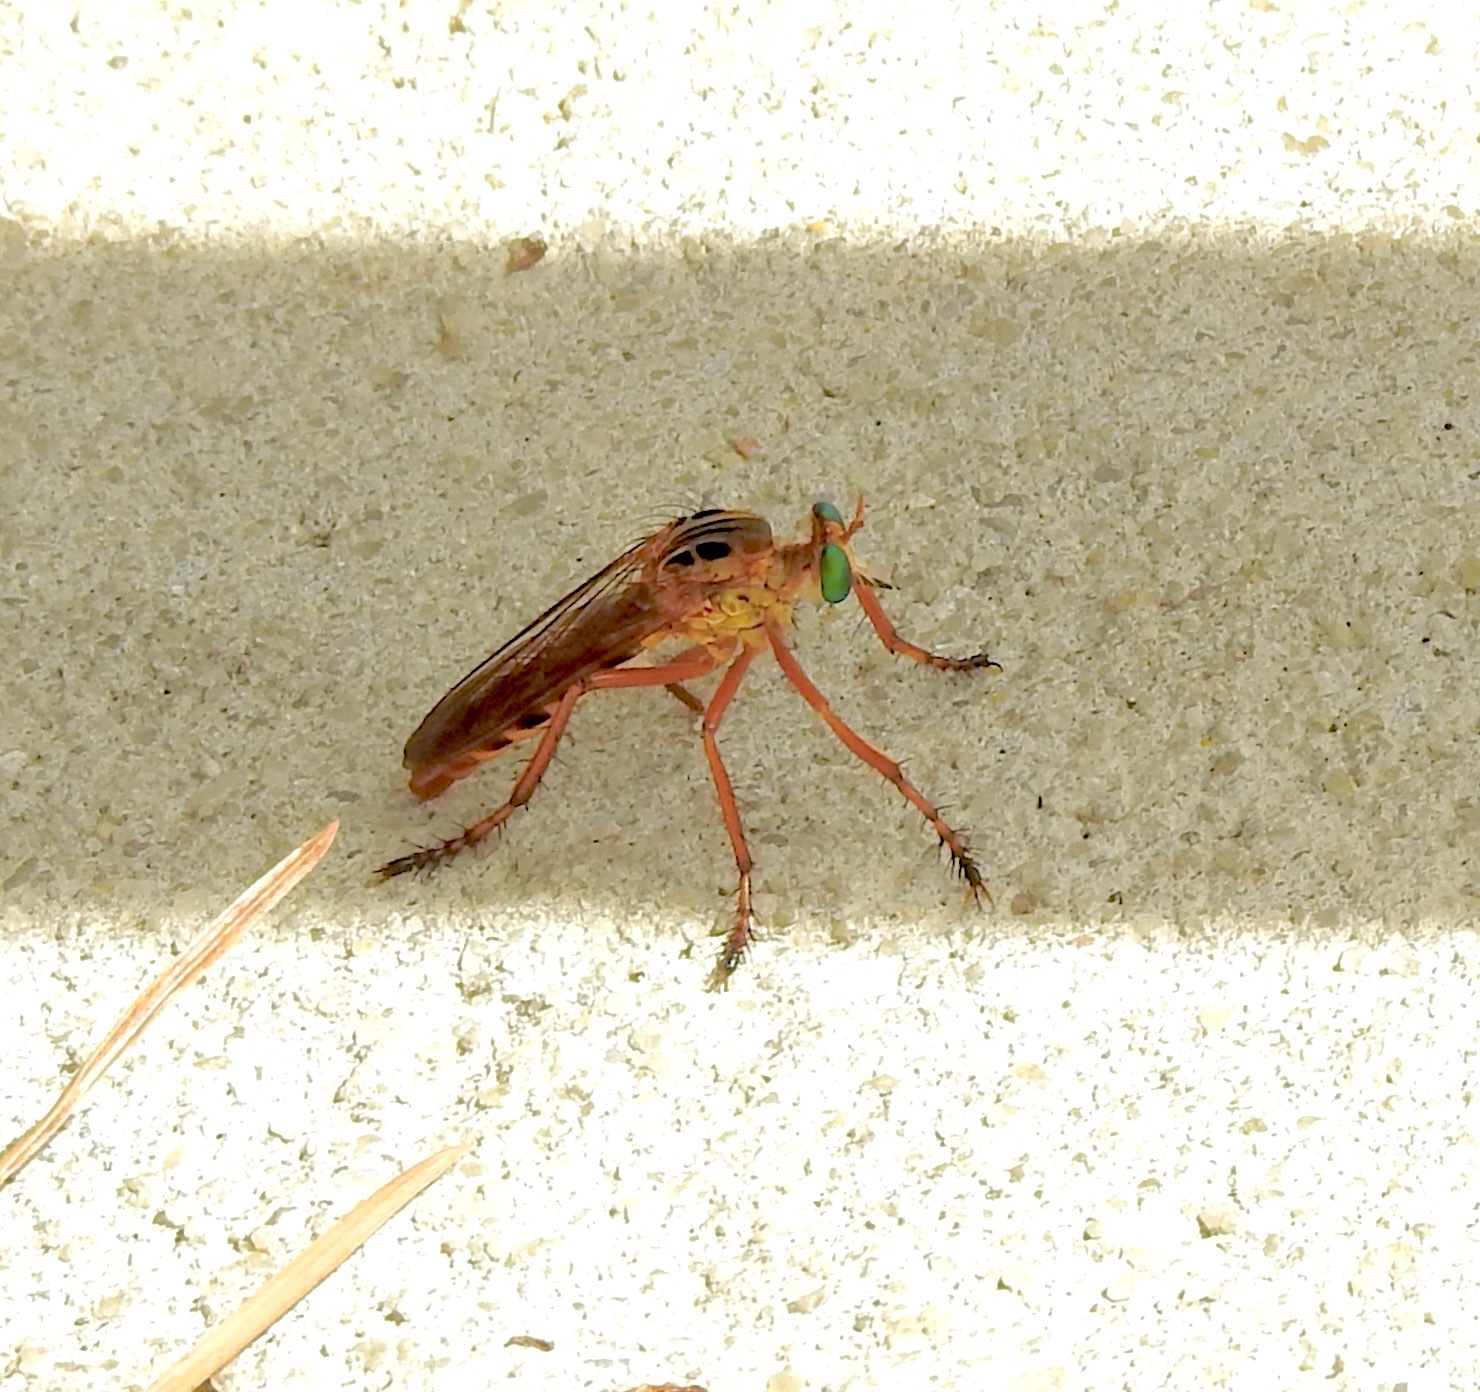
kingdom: Animalia
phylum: Arthropoda
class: Insecta
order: Diptera
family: Asilidae
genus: Diogmites
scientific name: Diogmites esuriens
